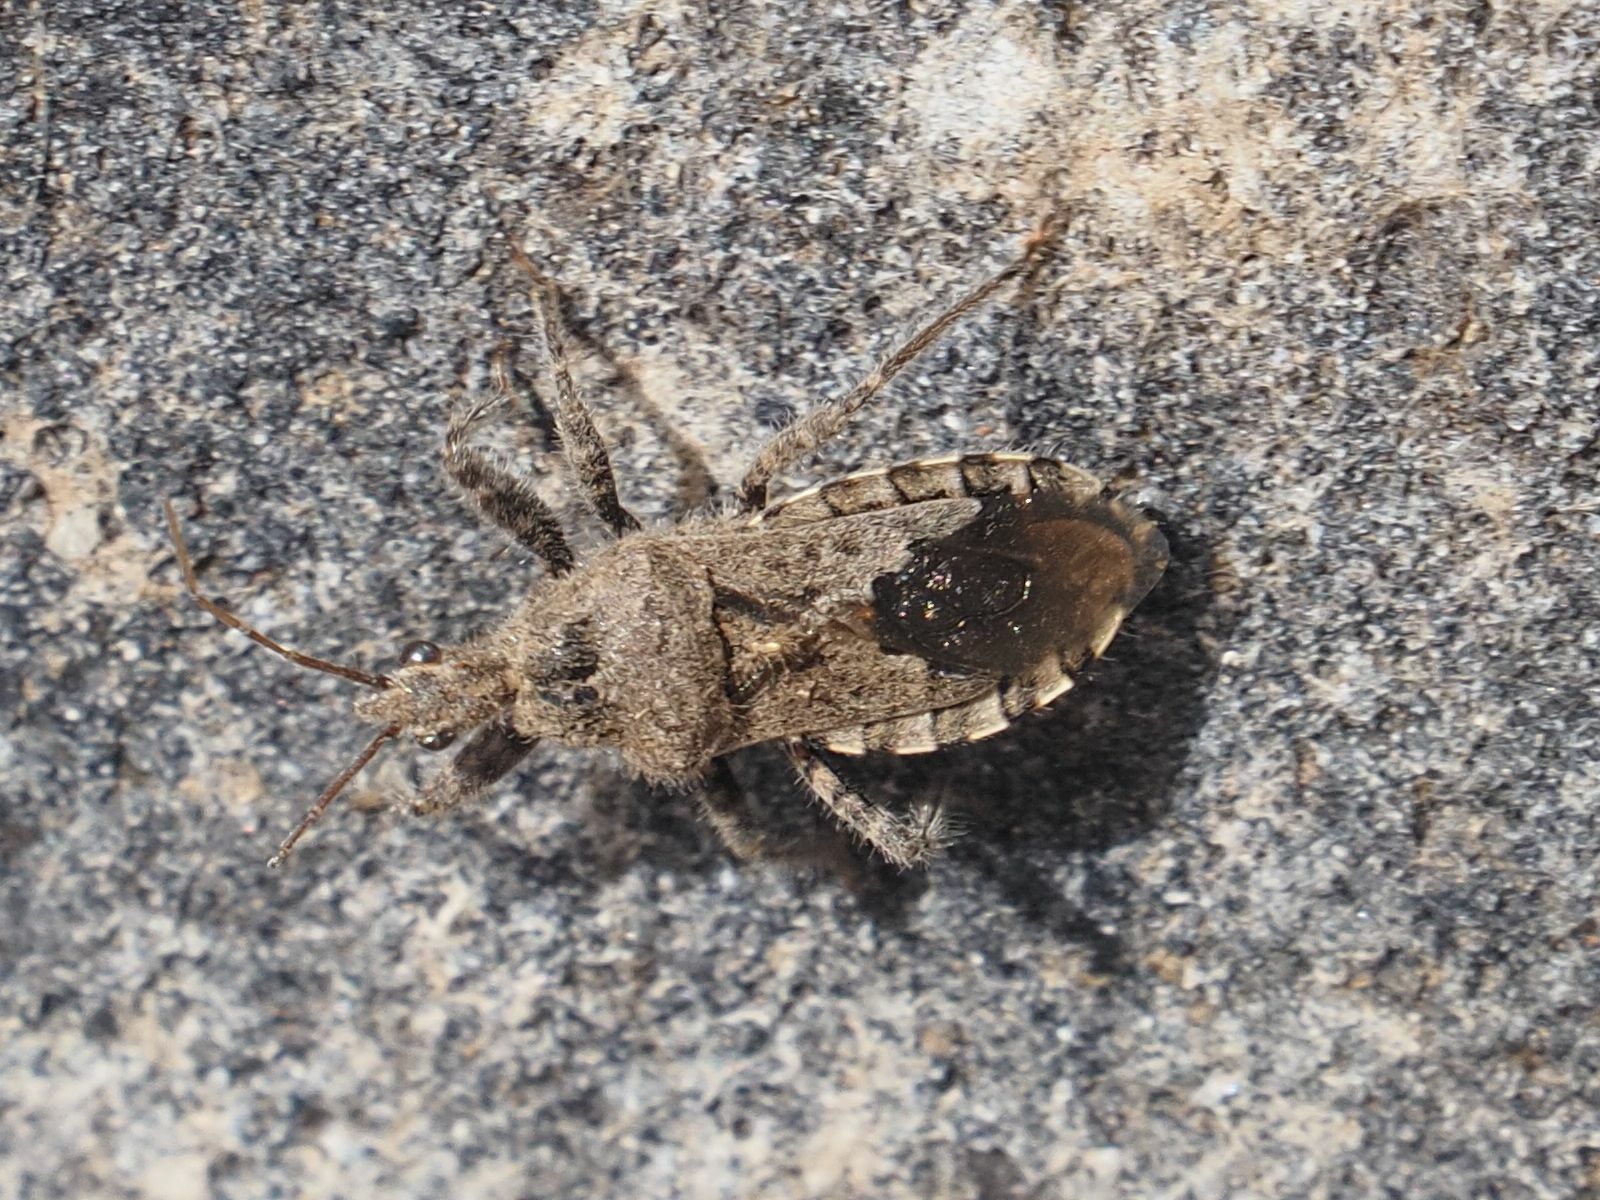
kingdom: Animalia
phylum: Arthropoda
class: Insecta
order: Hemiptera
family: Reduviidae
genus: Coranus
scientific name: Coranus griseus
